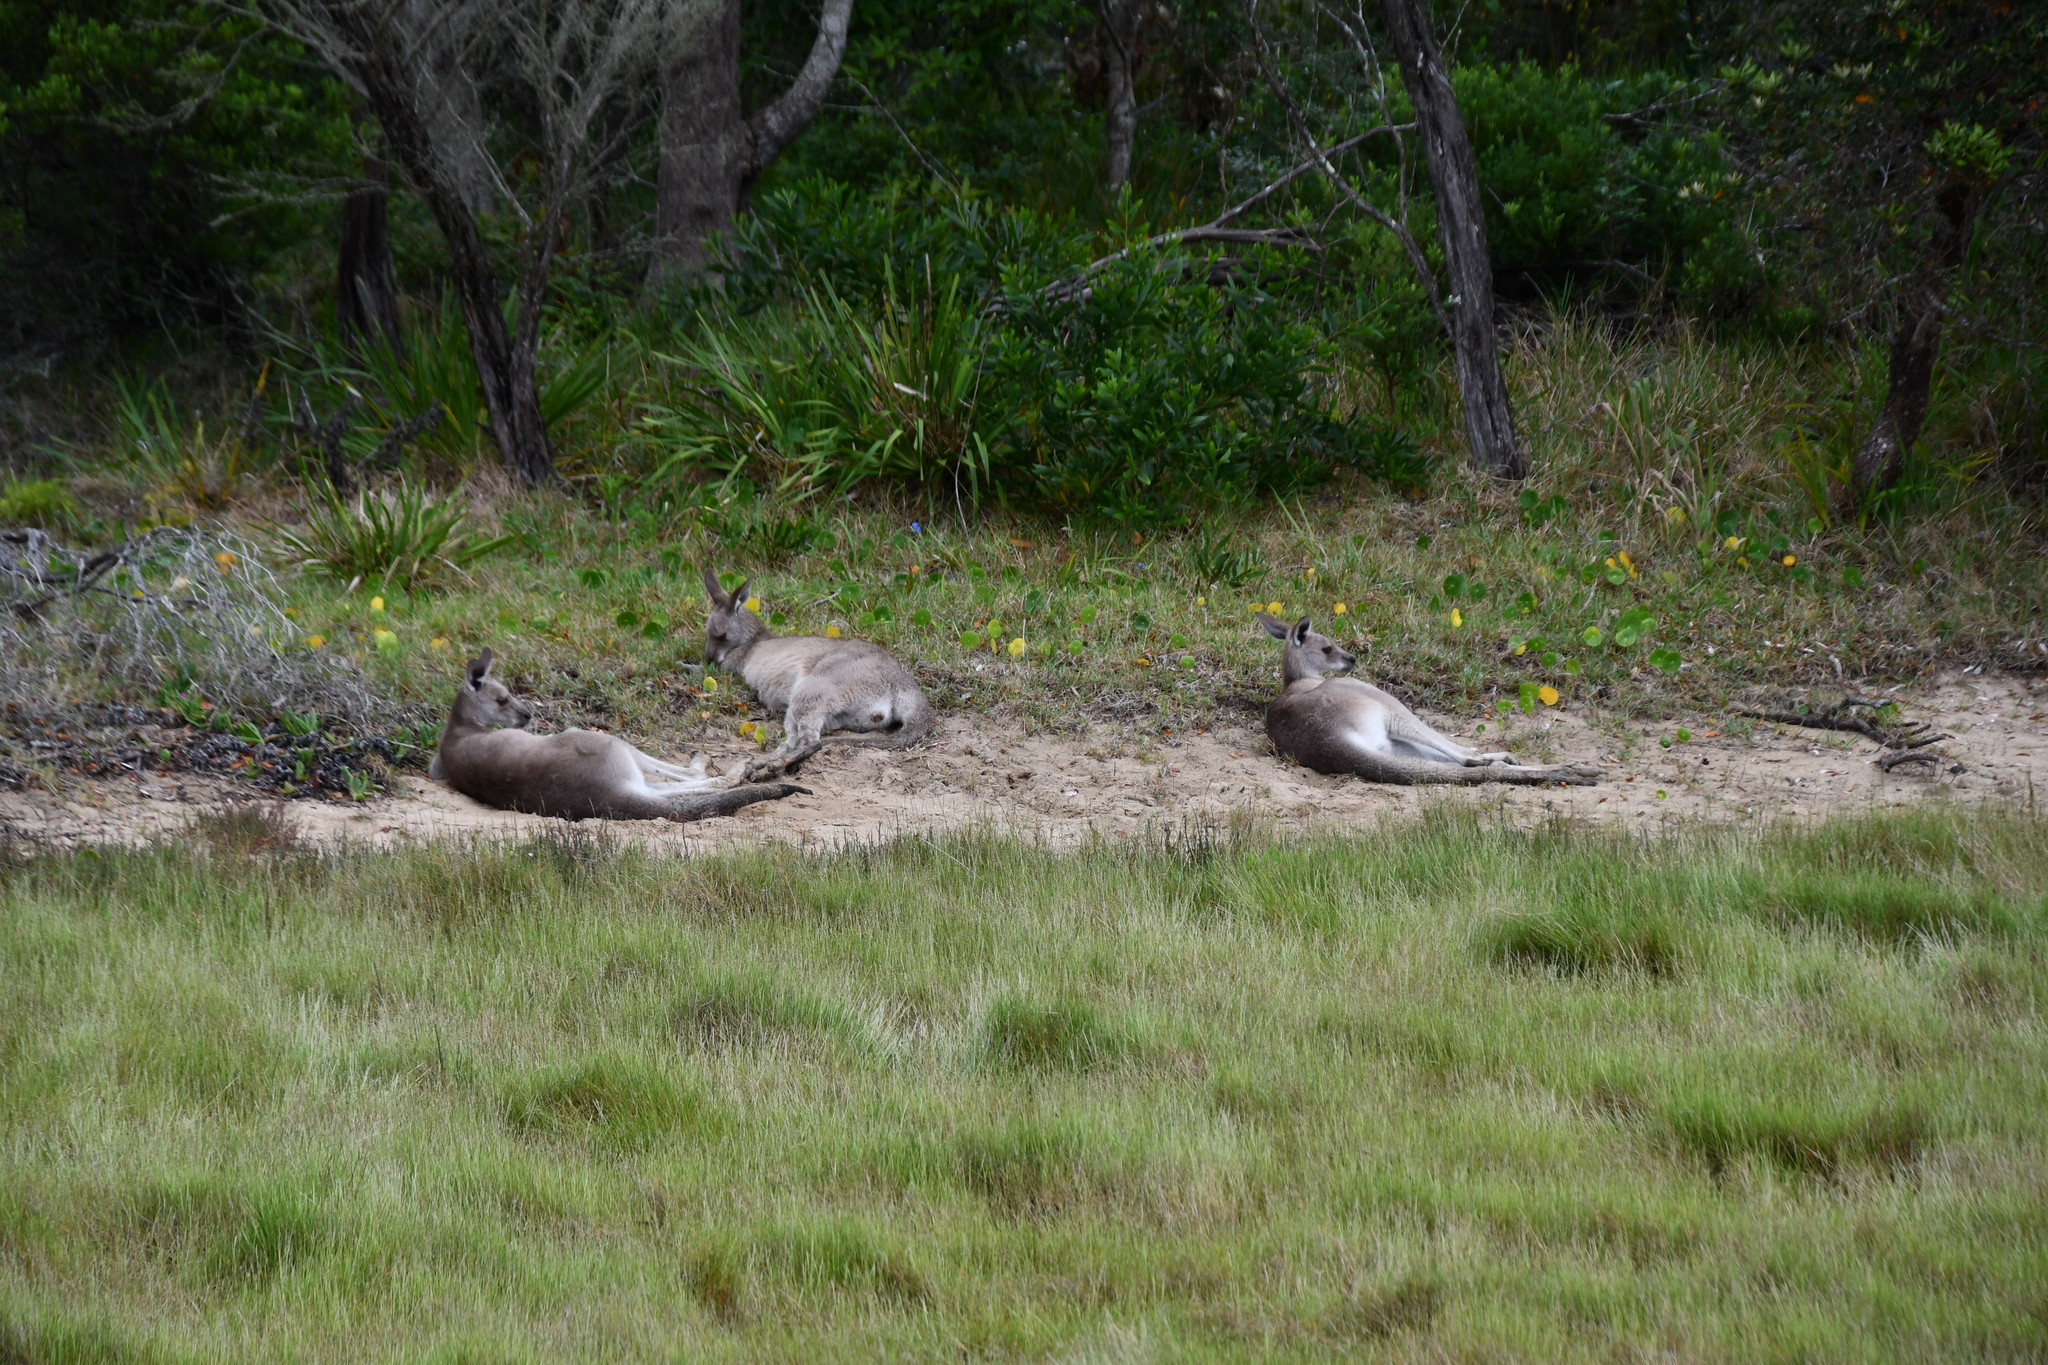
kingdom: Animalia
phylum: Chordata
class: Mammalia
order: Diprotodontia
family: Macropodidae
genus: Macropus
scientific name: Macropus giganteus
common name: Eastern grey kangaroo
